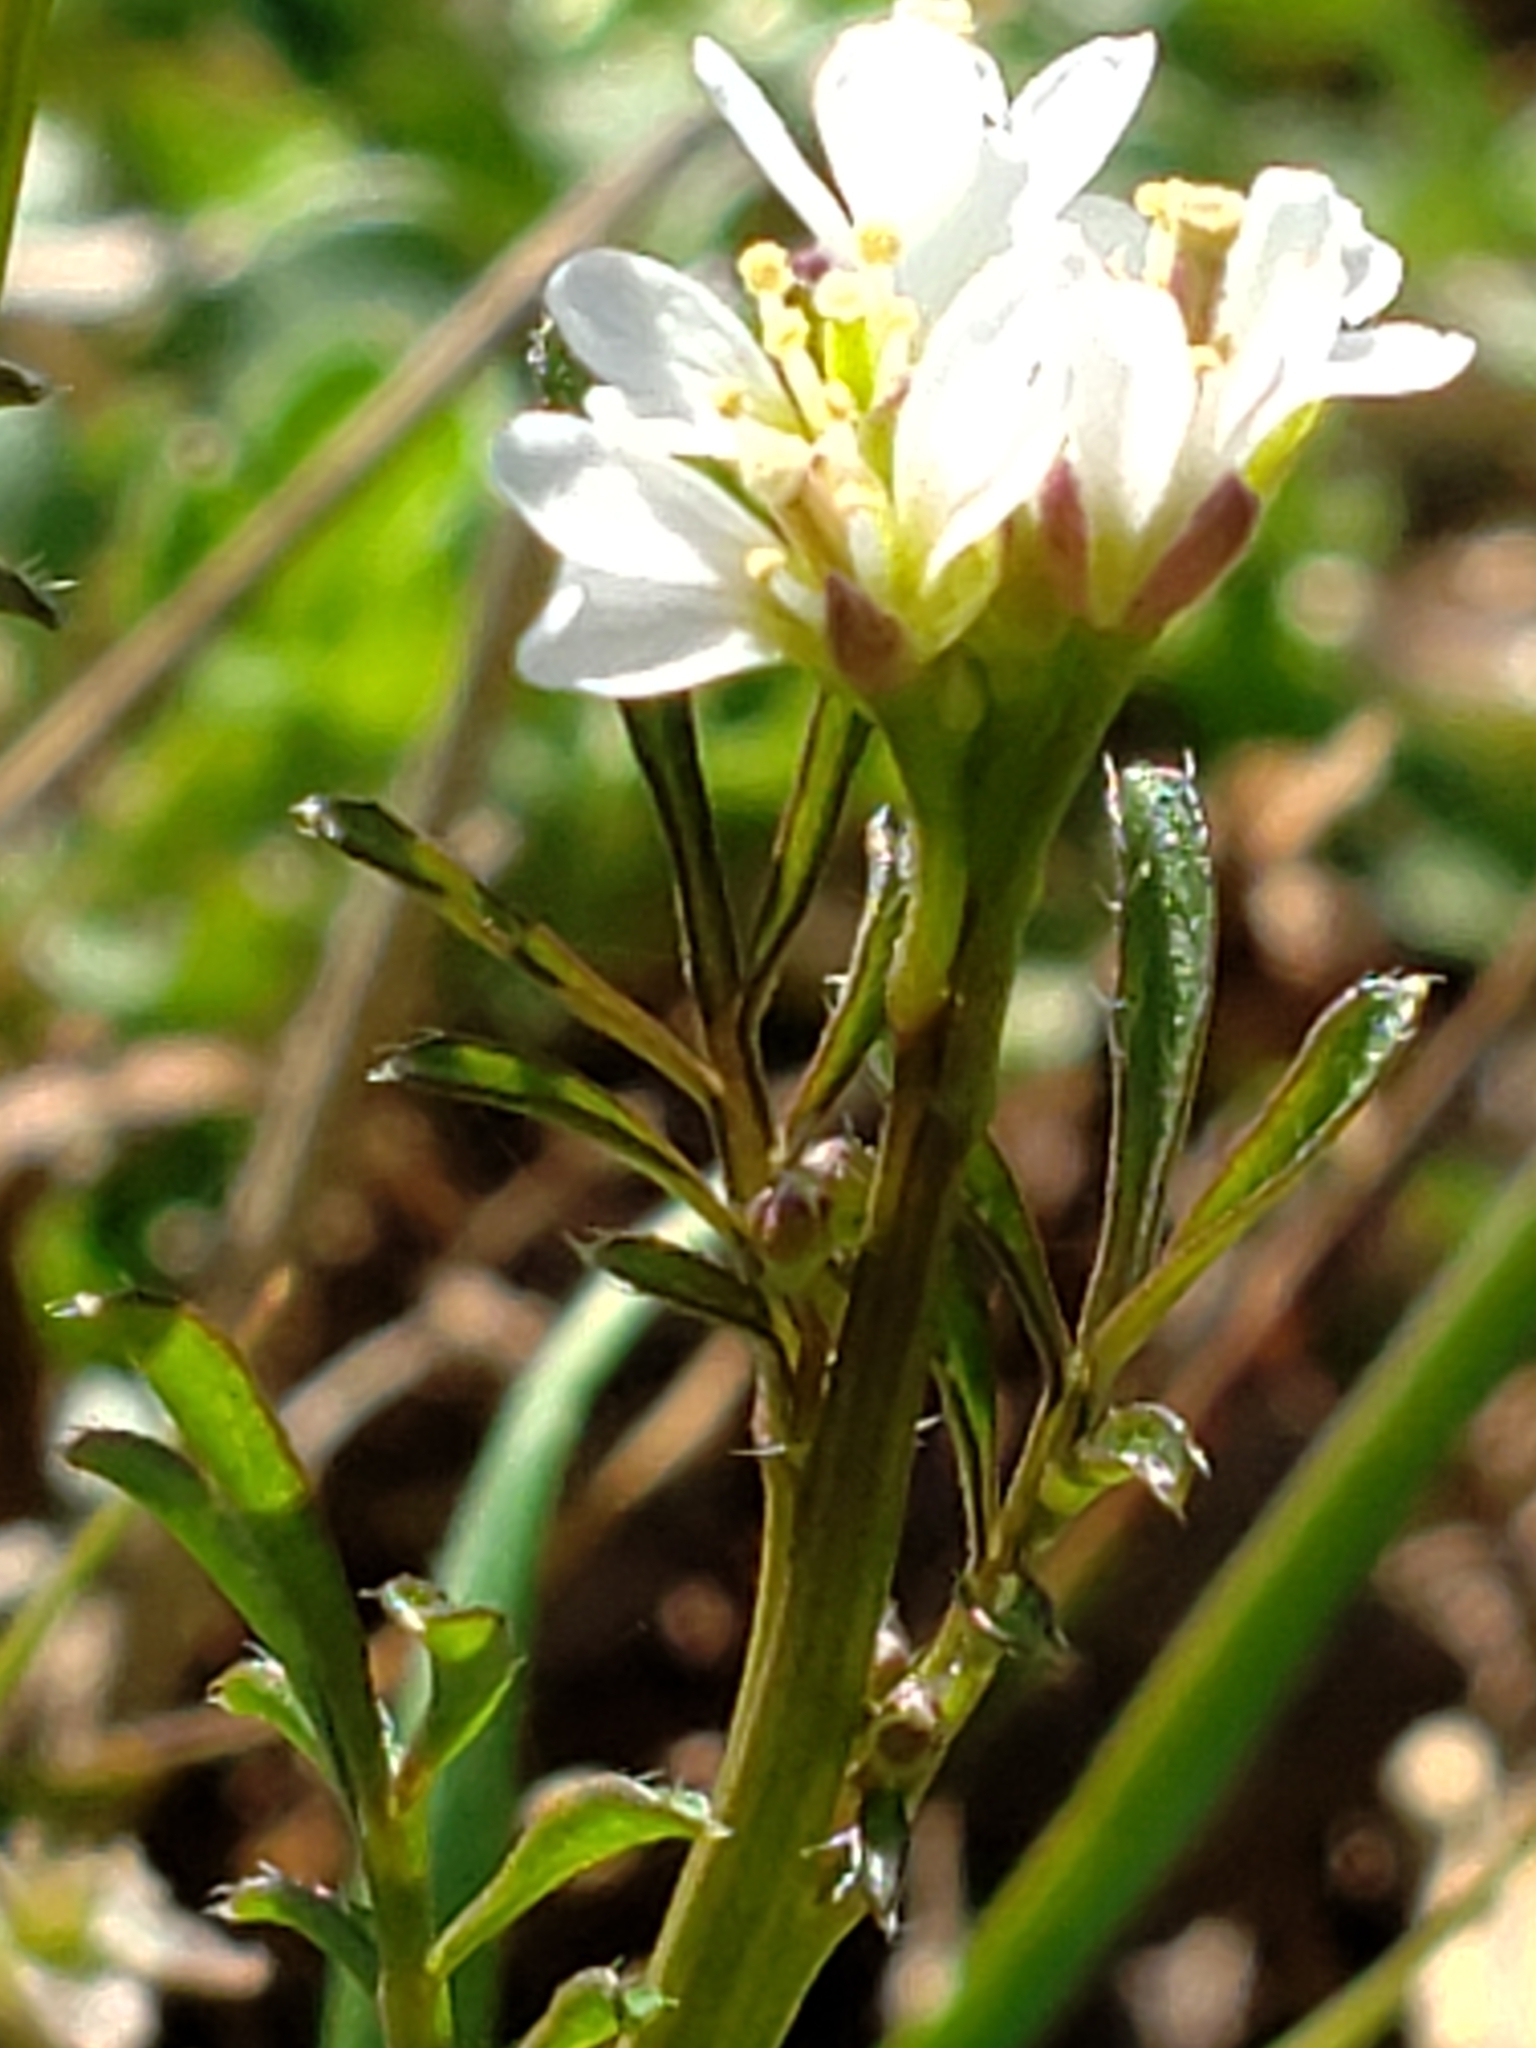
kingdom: Plantae
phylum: Tracheophyta
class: Magnoliopsida
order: Brassicales
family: Brassicaceae
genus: Cardamine
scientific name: Cardamine hirsuta
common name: Hairy bittercress
